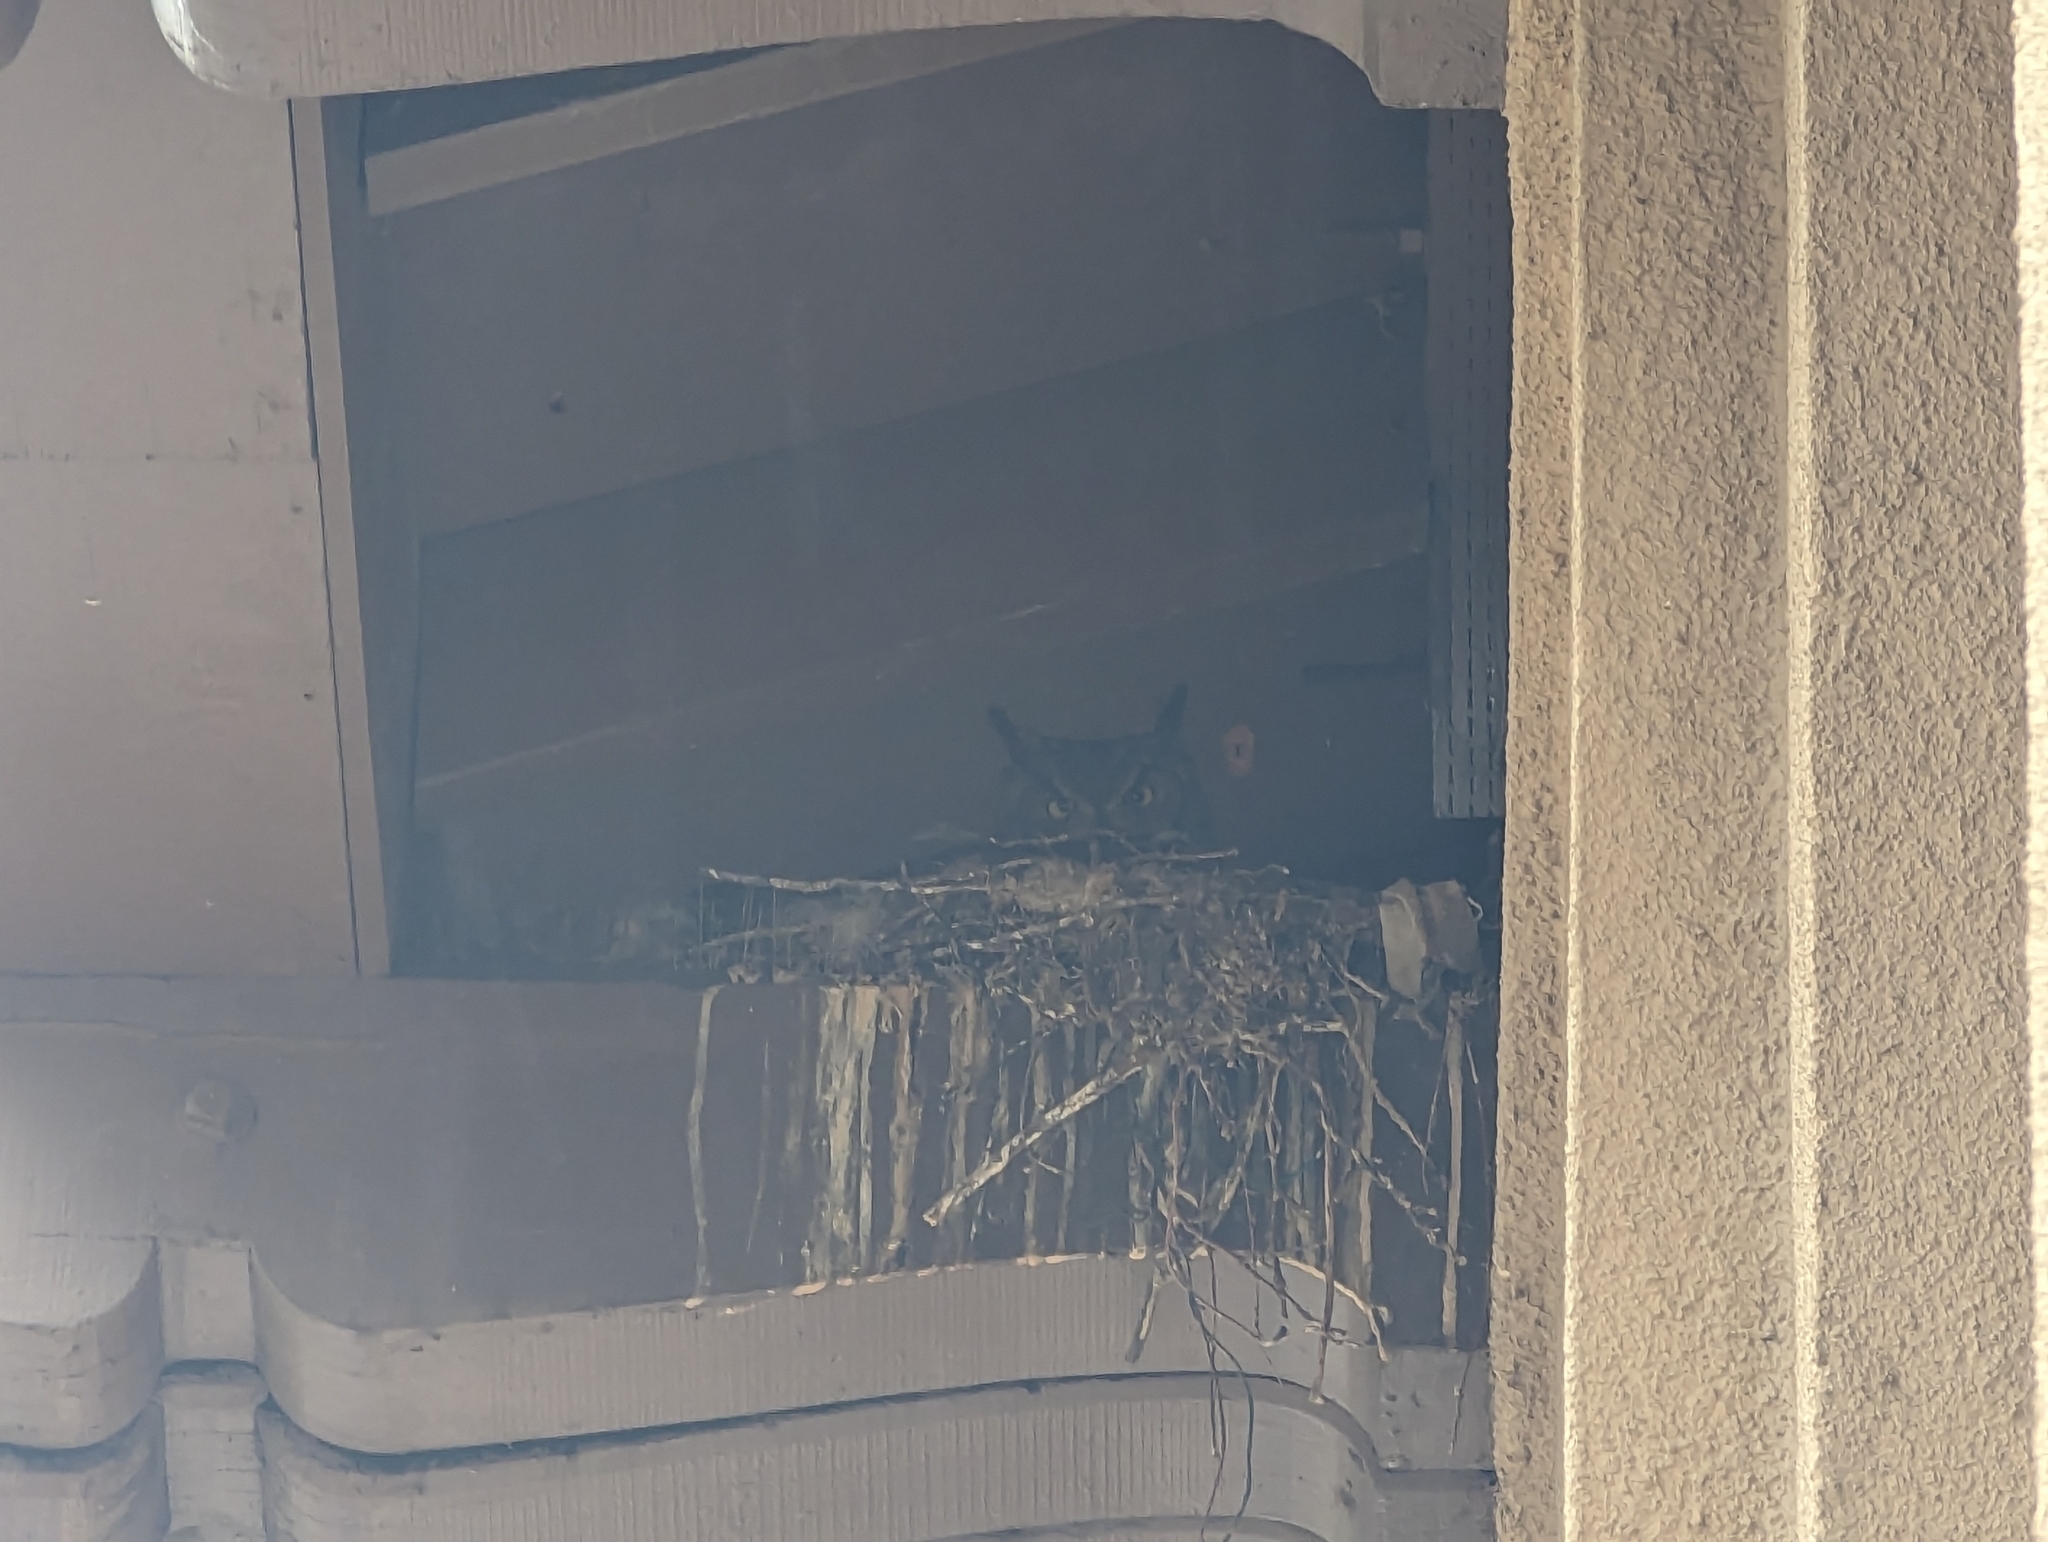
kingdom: Animalia
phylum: Chordata
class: Aves
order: Strigiformes
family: Strigidae
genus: Bubo
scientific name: Bubo virginianus
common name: Great horned owl
